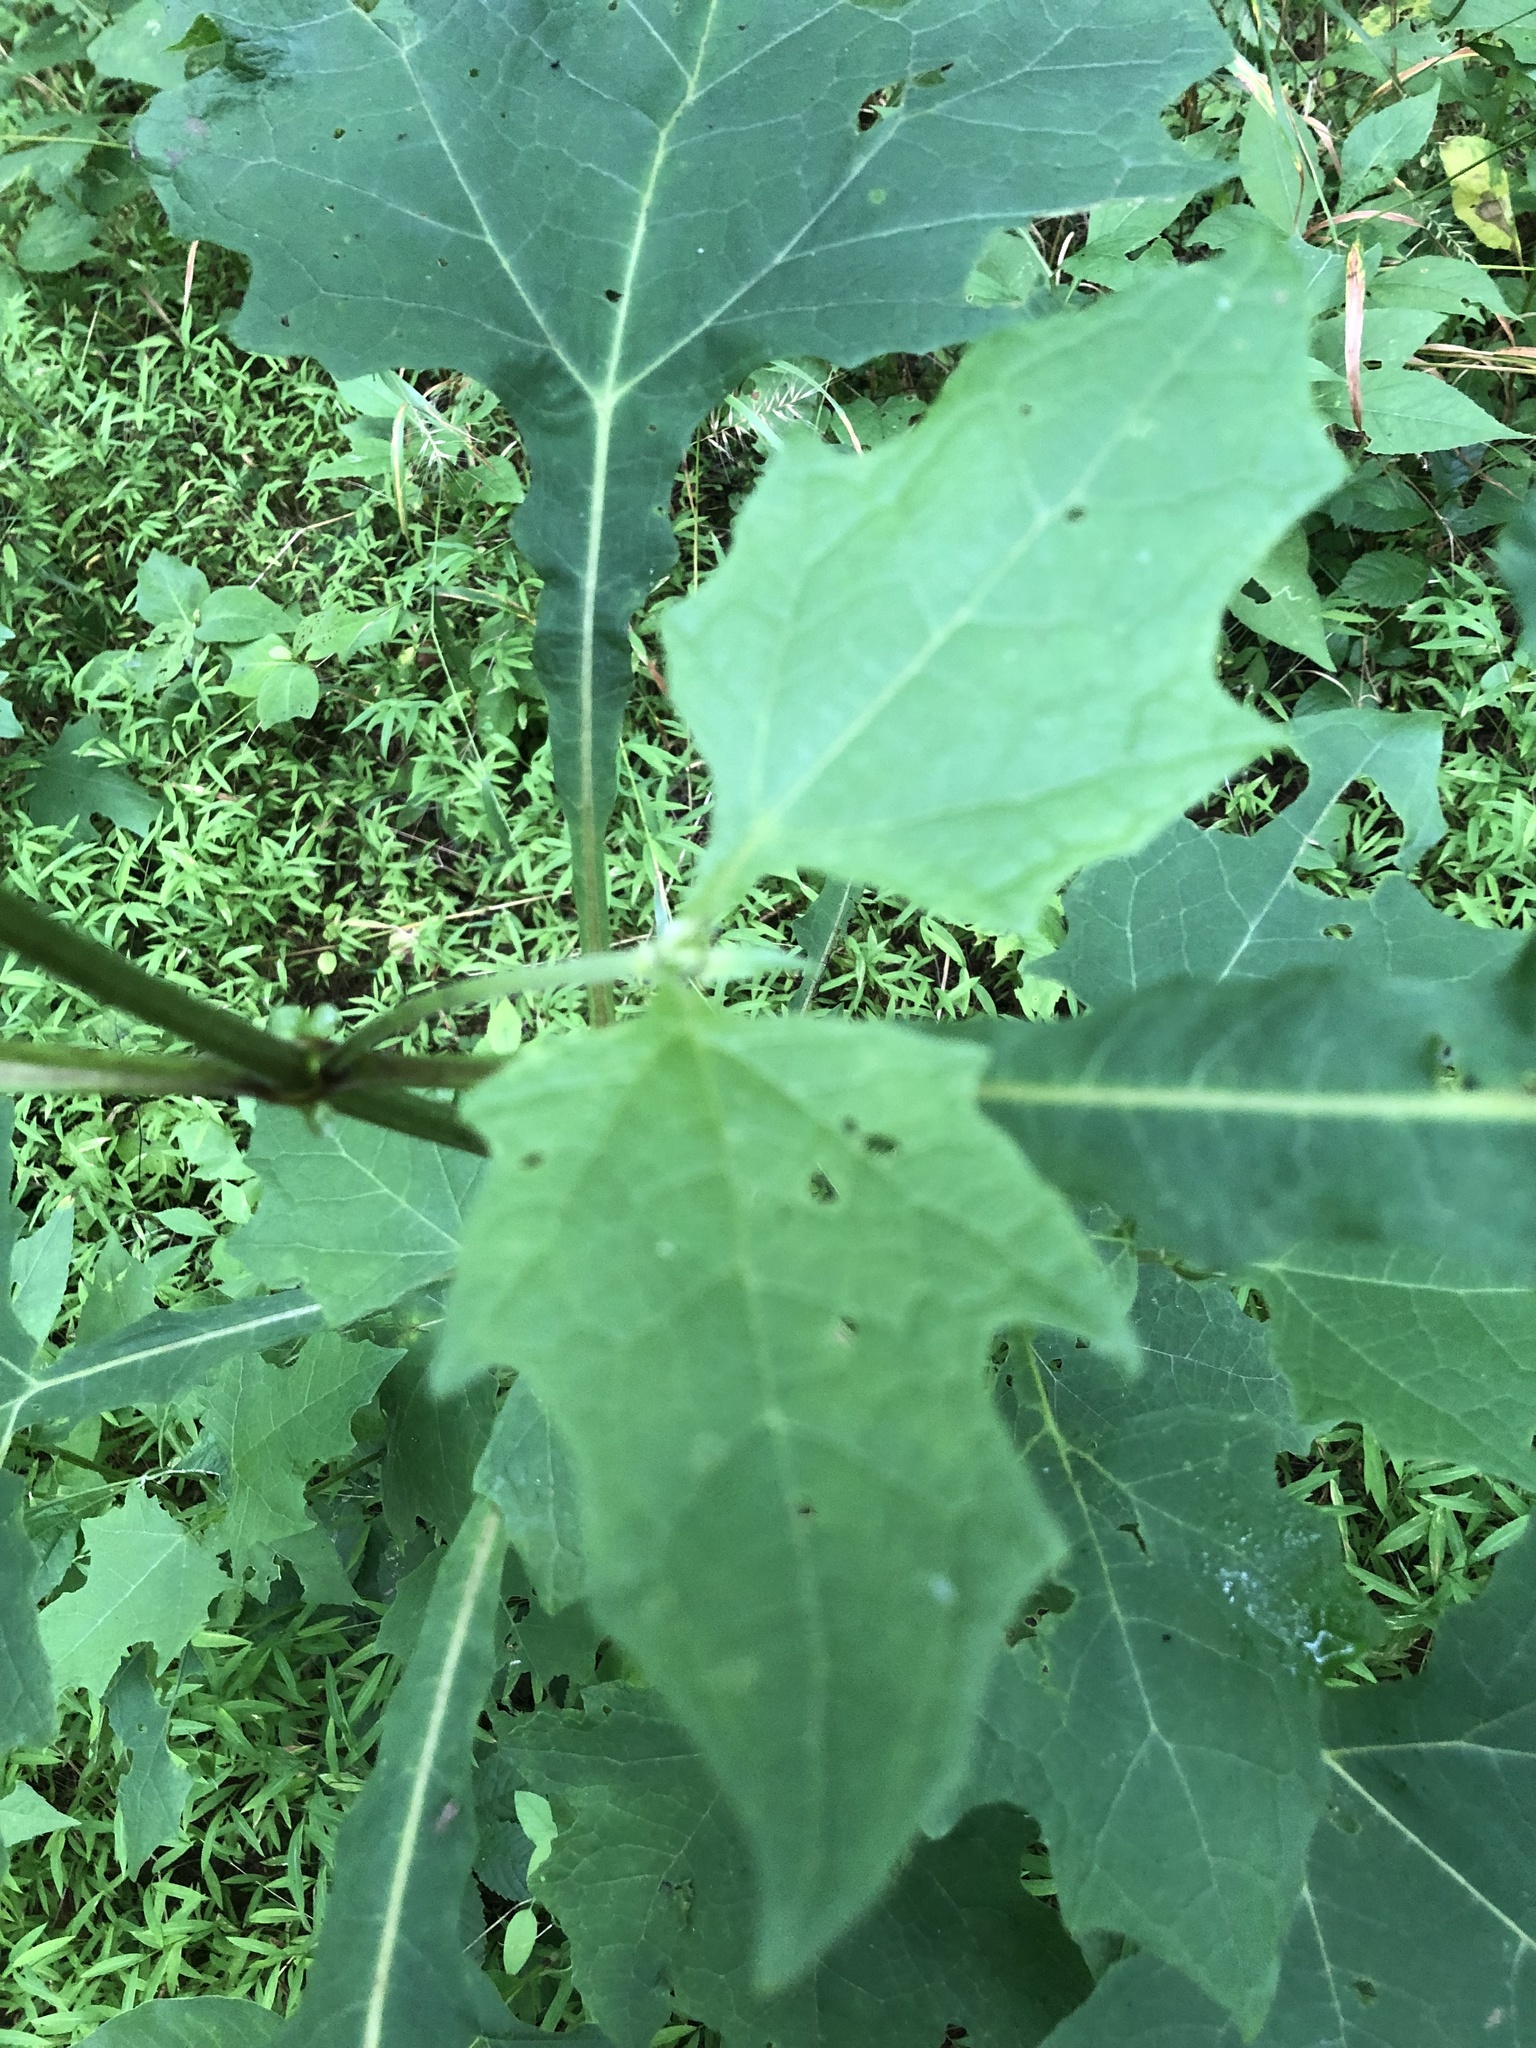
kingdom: Plantae
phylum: Tracheophyta
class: Magnoliopsida
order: Asterales
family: Asteraceae
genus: Smallanthus
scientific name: Smallanthus uvedalia
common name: Bear's-foot
